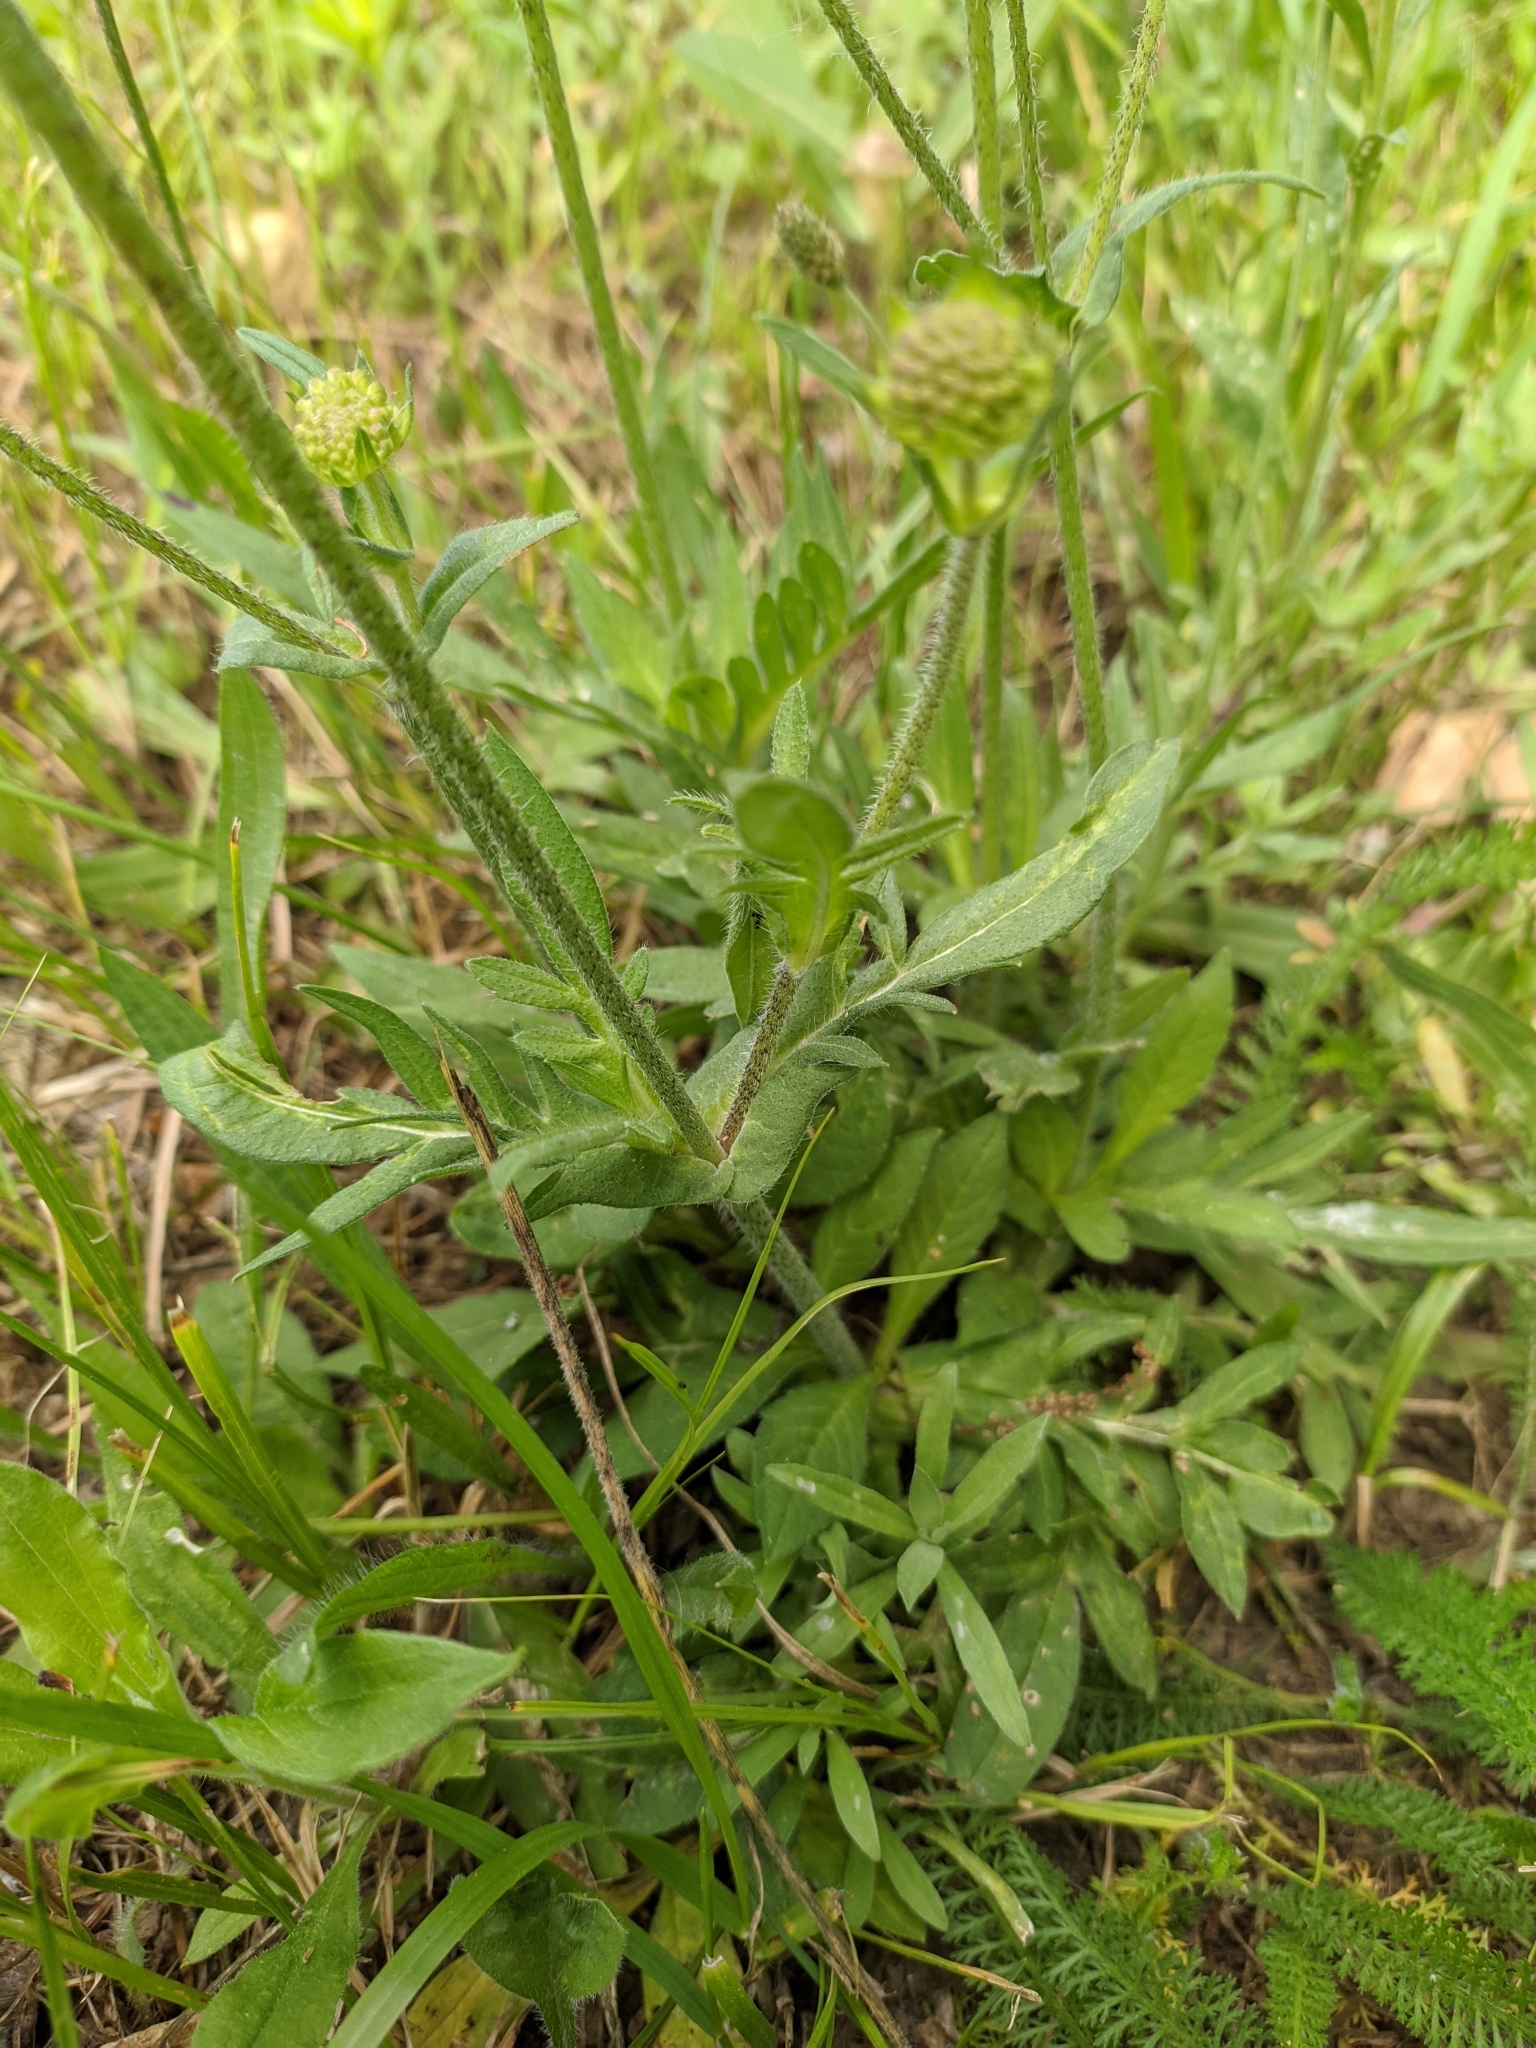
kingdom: Plantae
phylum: Tracheophyta
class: Magnoliopsida
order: Dipsacales
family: Caprifoliaceae
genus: Knautia
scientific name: Knautia arvensis
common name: Field scabiosa
